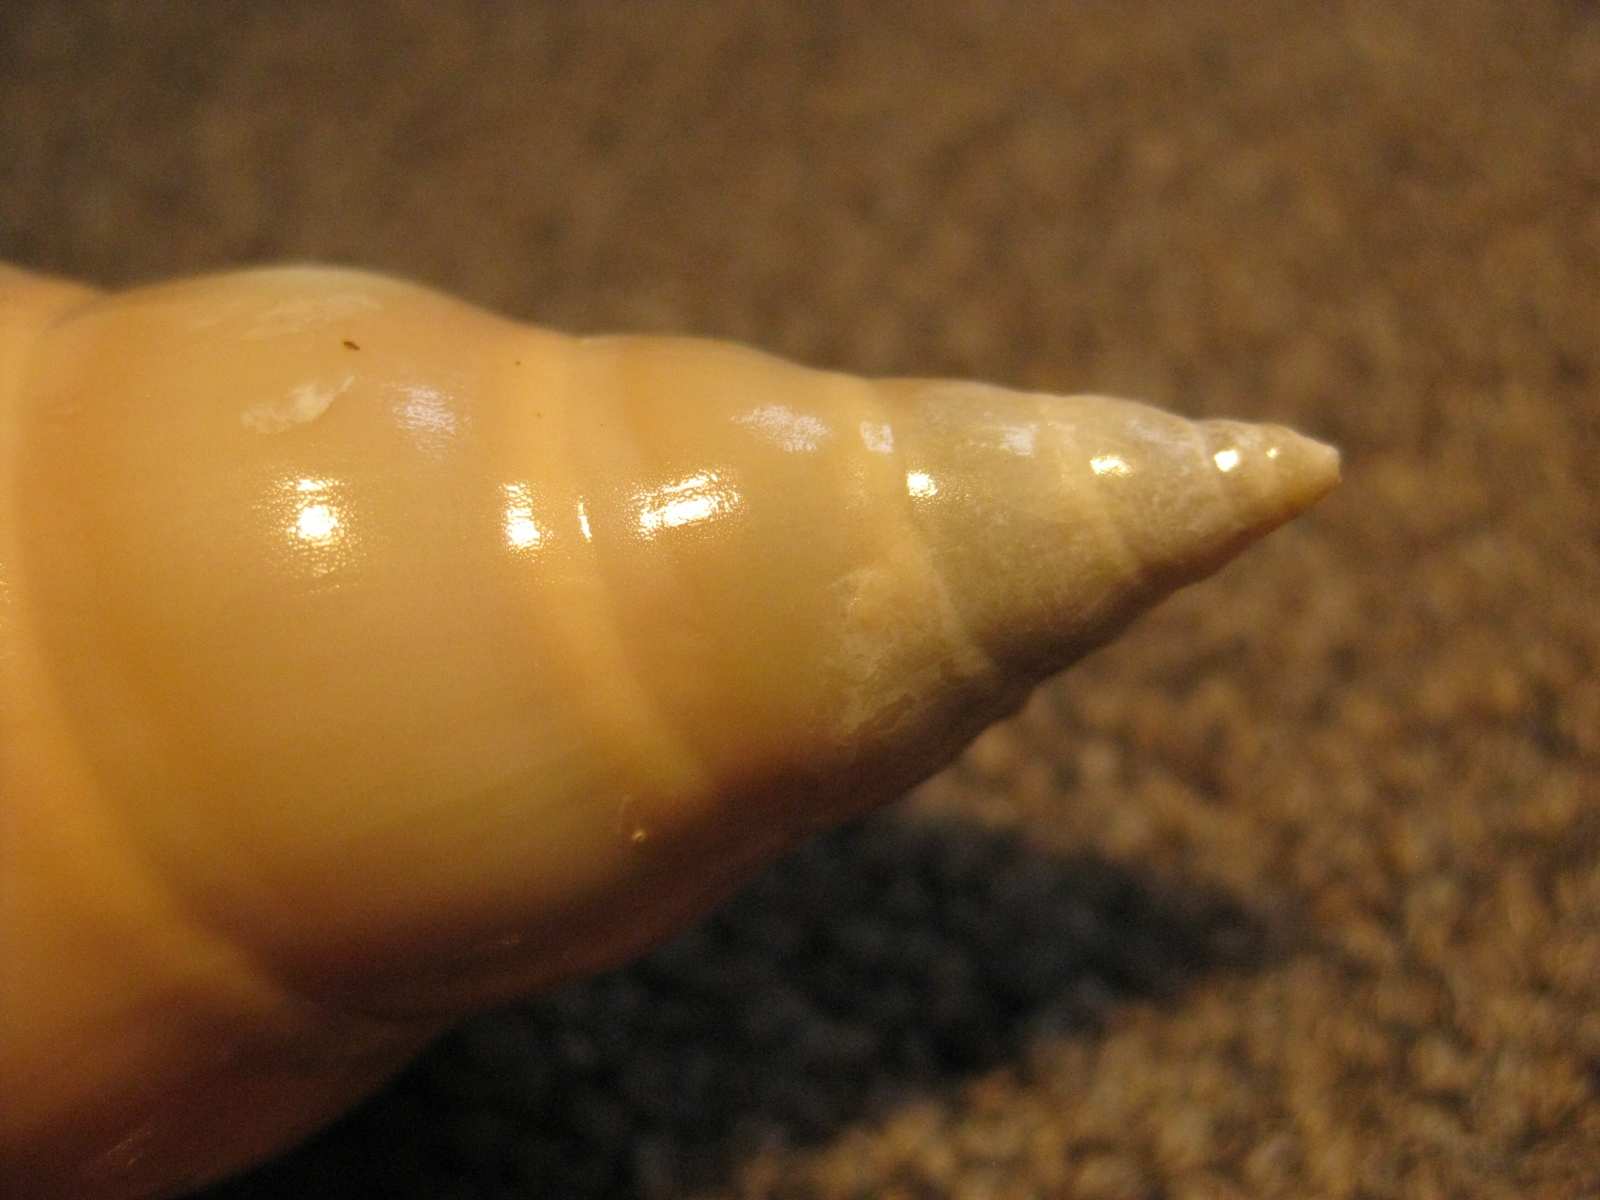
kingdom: Animalia
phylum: Mollusca
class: Gastropoda
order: Neogastropoda
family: Volutidae
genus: Provocator
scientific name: Provocator mirabilis
